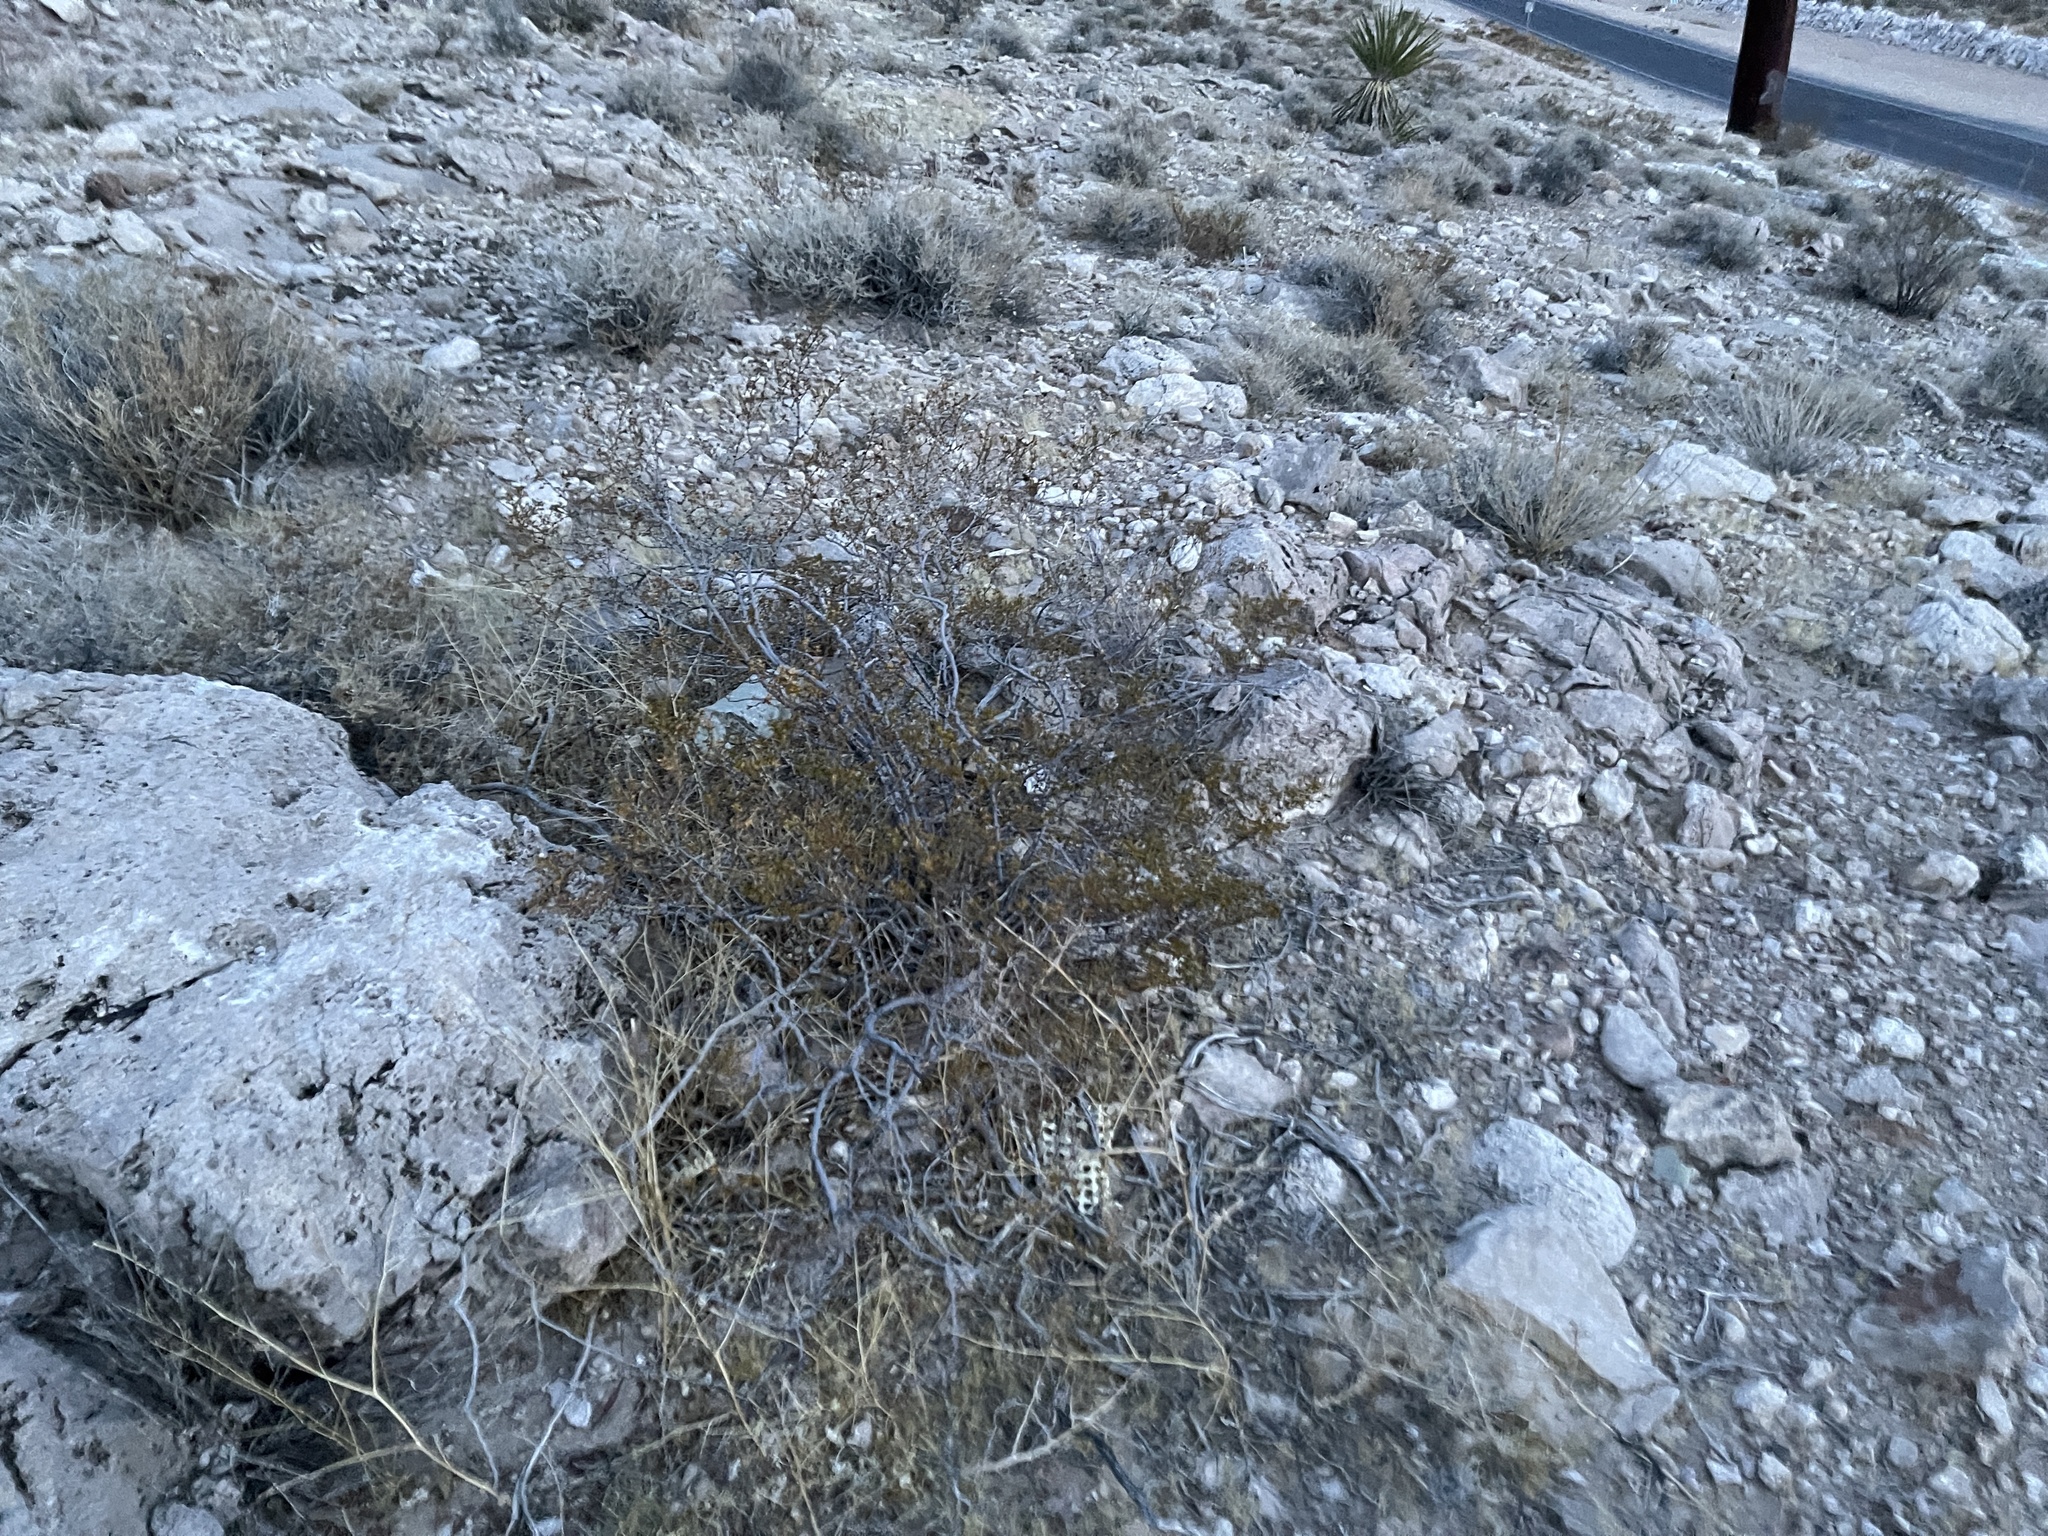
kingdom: Plantae
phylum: Tracheophyta
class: Magnoliopsida
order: Zygophyllales
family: Zygophyllaceae
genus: Larrea
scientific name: Larrea tridentata
